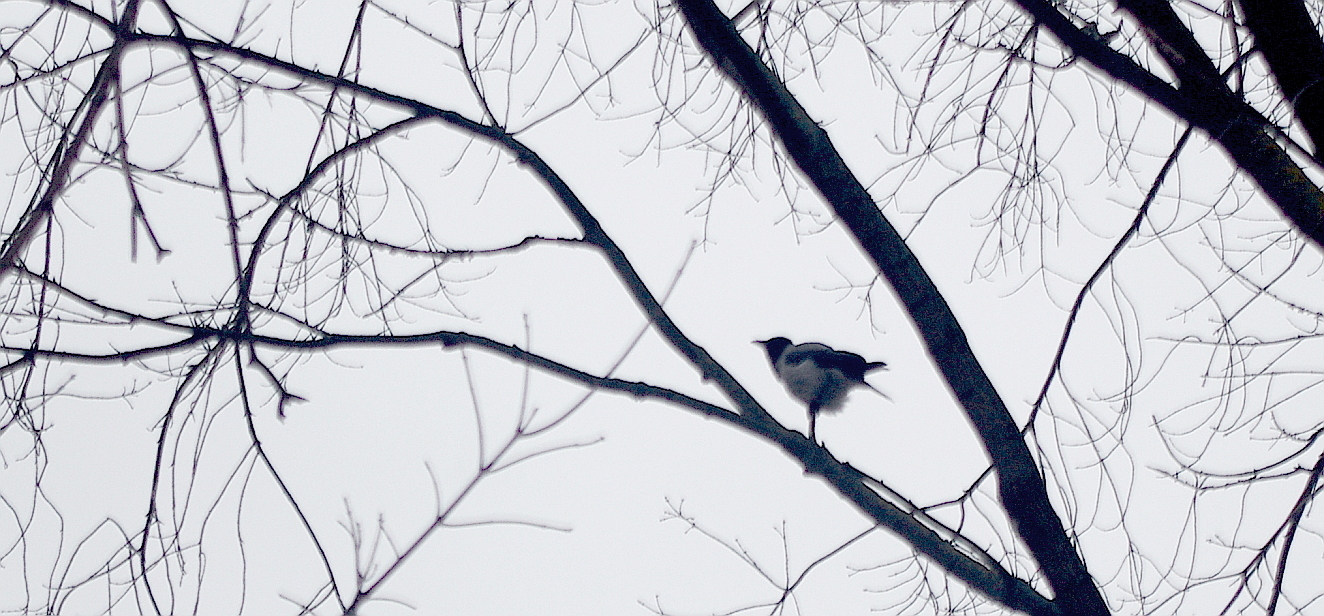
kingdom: Animalia
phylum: Chordata
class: Aves
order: Passeriformes
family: Corvidae
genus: Corvus
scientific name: Corvus cornix
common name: Hooded crow
